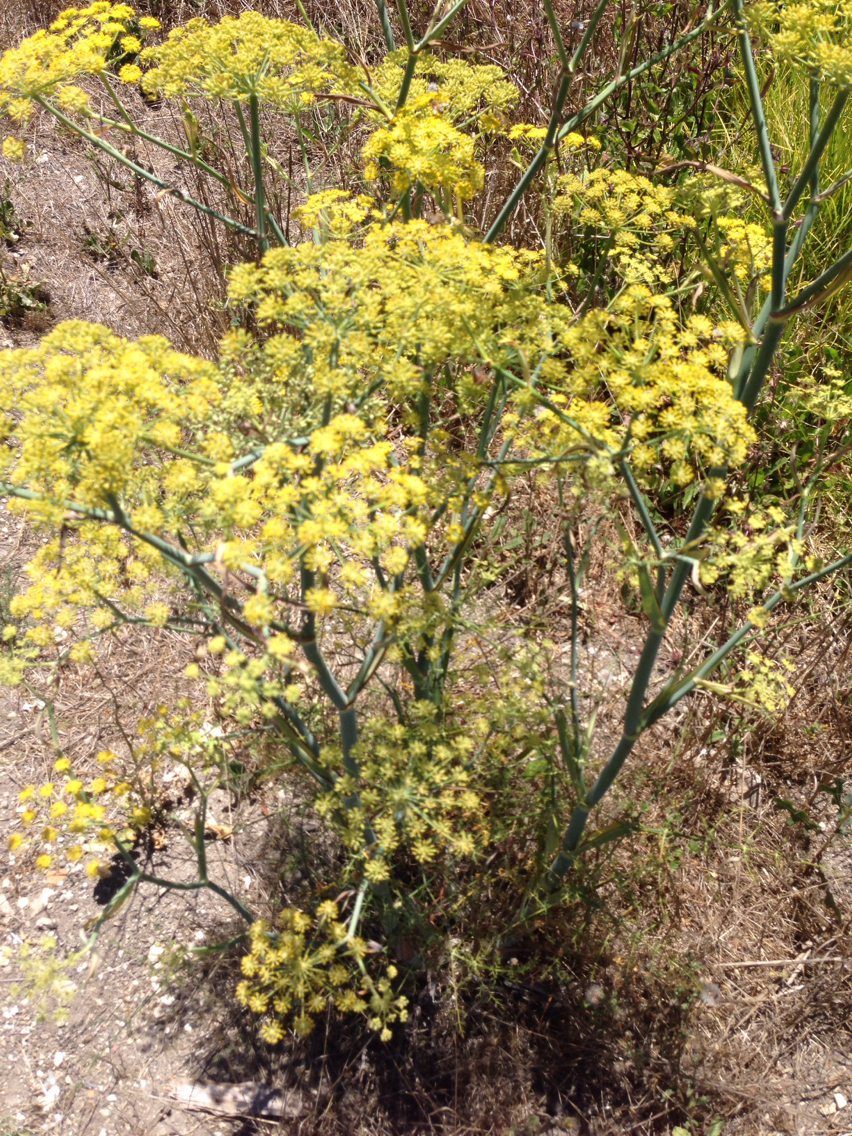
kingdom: Plantae
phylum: Tracheophyta
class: Magnoliopsida
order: Apiales
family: Apiaceae
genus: Foeniculum
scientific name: Foeniculum vulgare
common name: Fennel
